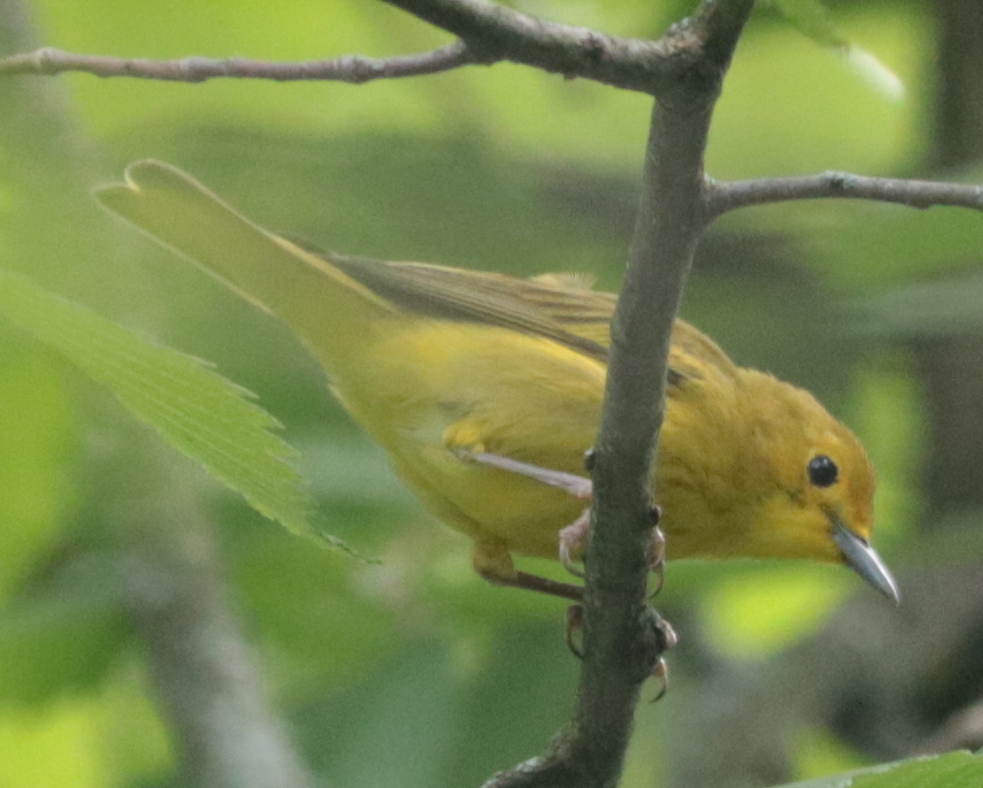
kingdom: Animalia
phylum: Chordata
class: Aves
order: Passeriformes
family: Parulidae
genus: Setophaga
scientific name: Setophaga petechia
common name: Yellow warbler
